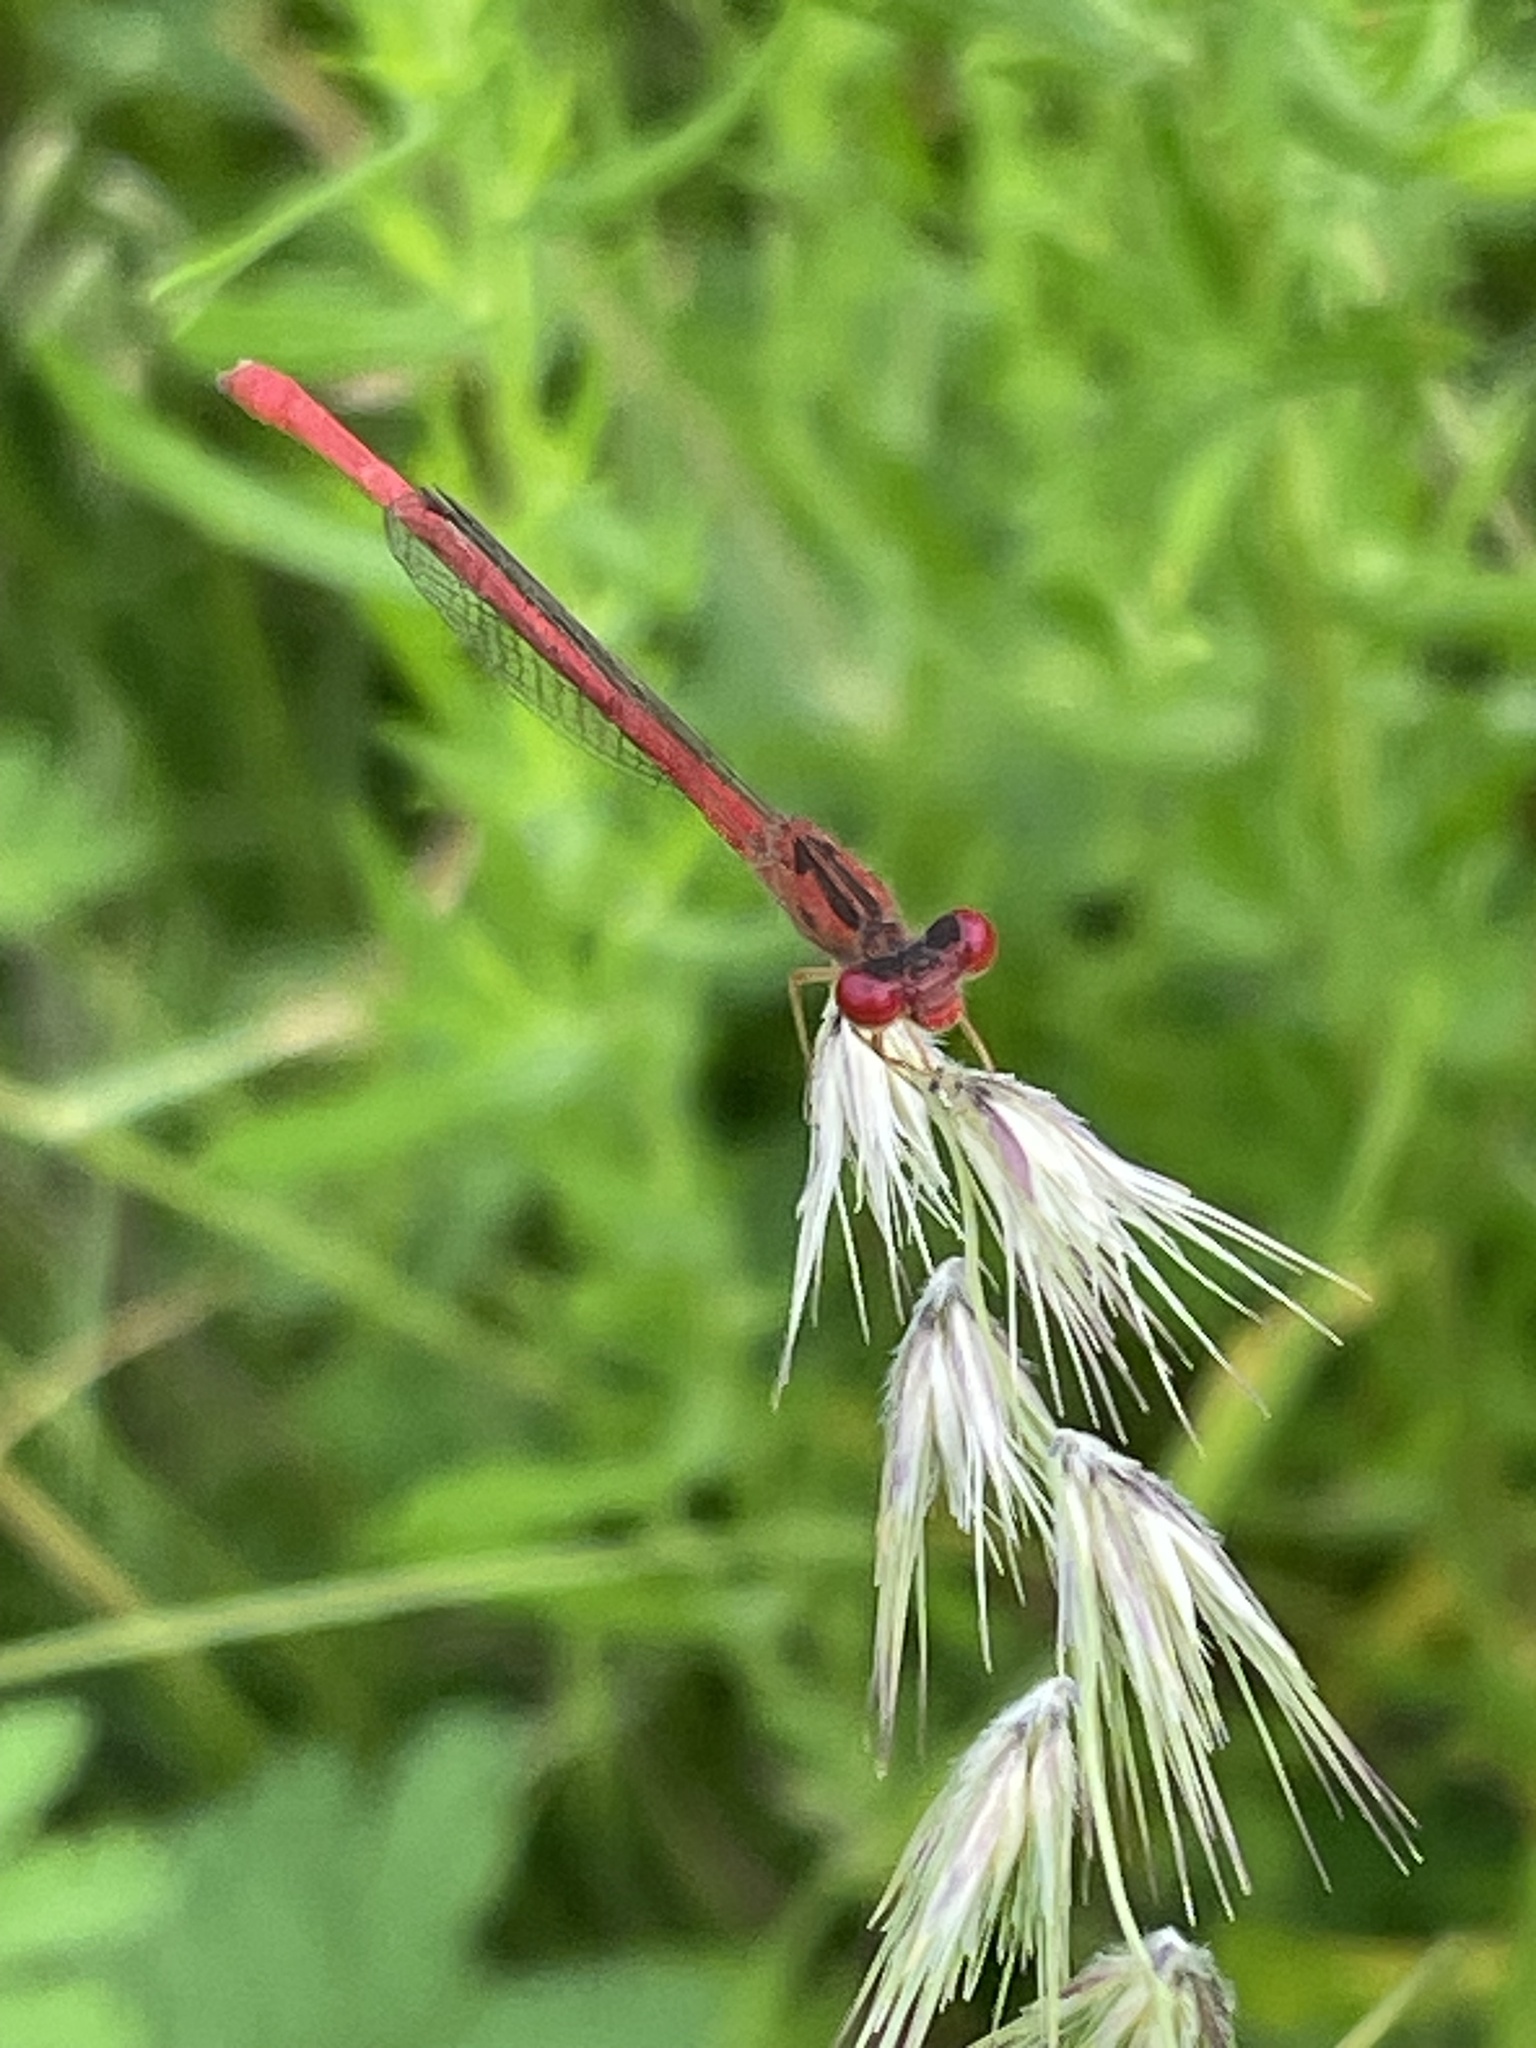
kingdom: Animalia
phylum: Arthropoda
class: Insecta
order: Odonata
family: Coenagrionidae
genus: Telebasis
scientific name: Telebasis salva
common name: Desert firetail
